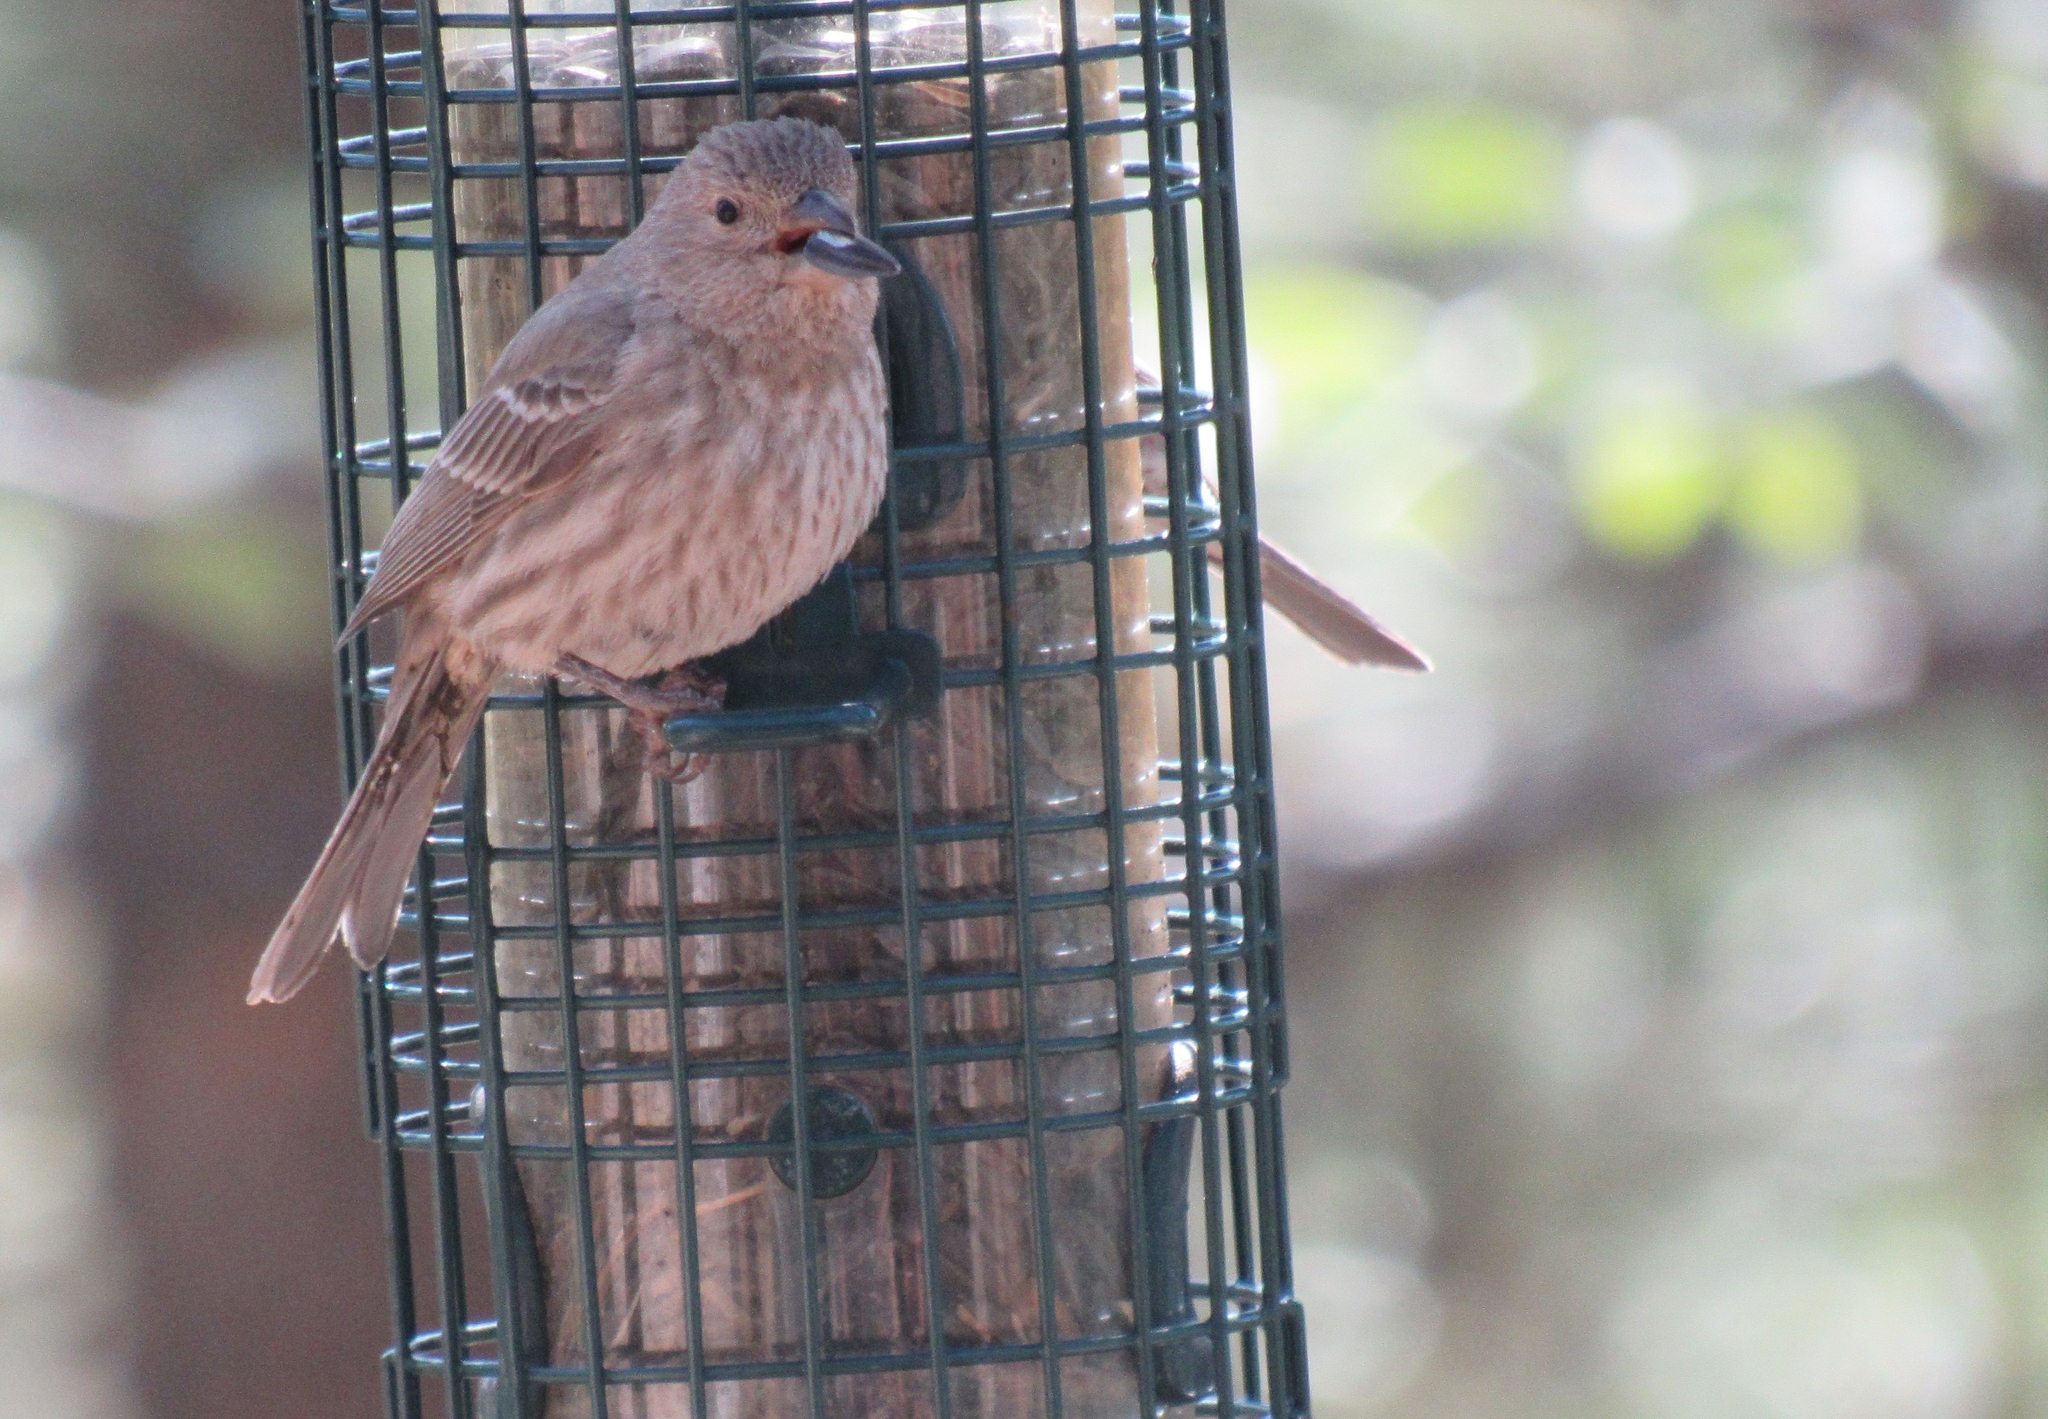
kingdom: Animalia
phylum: Chordata
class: Aves
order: Passeriformes
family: Fringillidae
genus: Haemorhous
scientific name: Haemorhous mexicanus
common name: House finch
